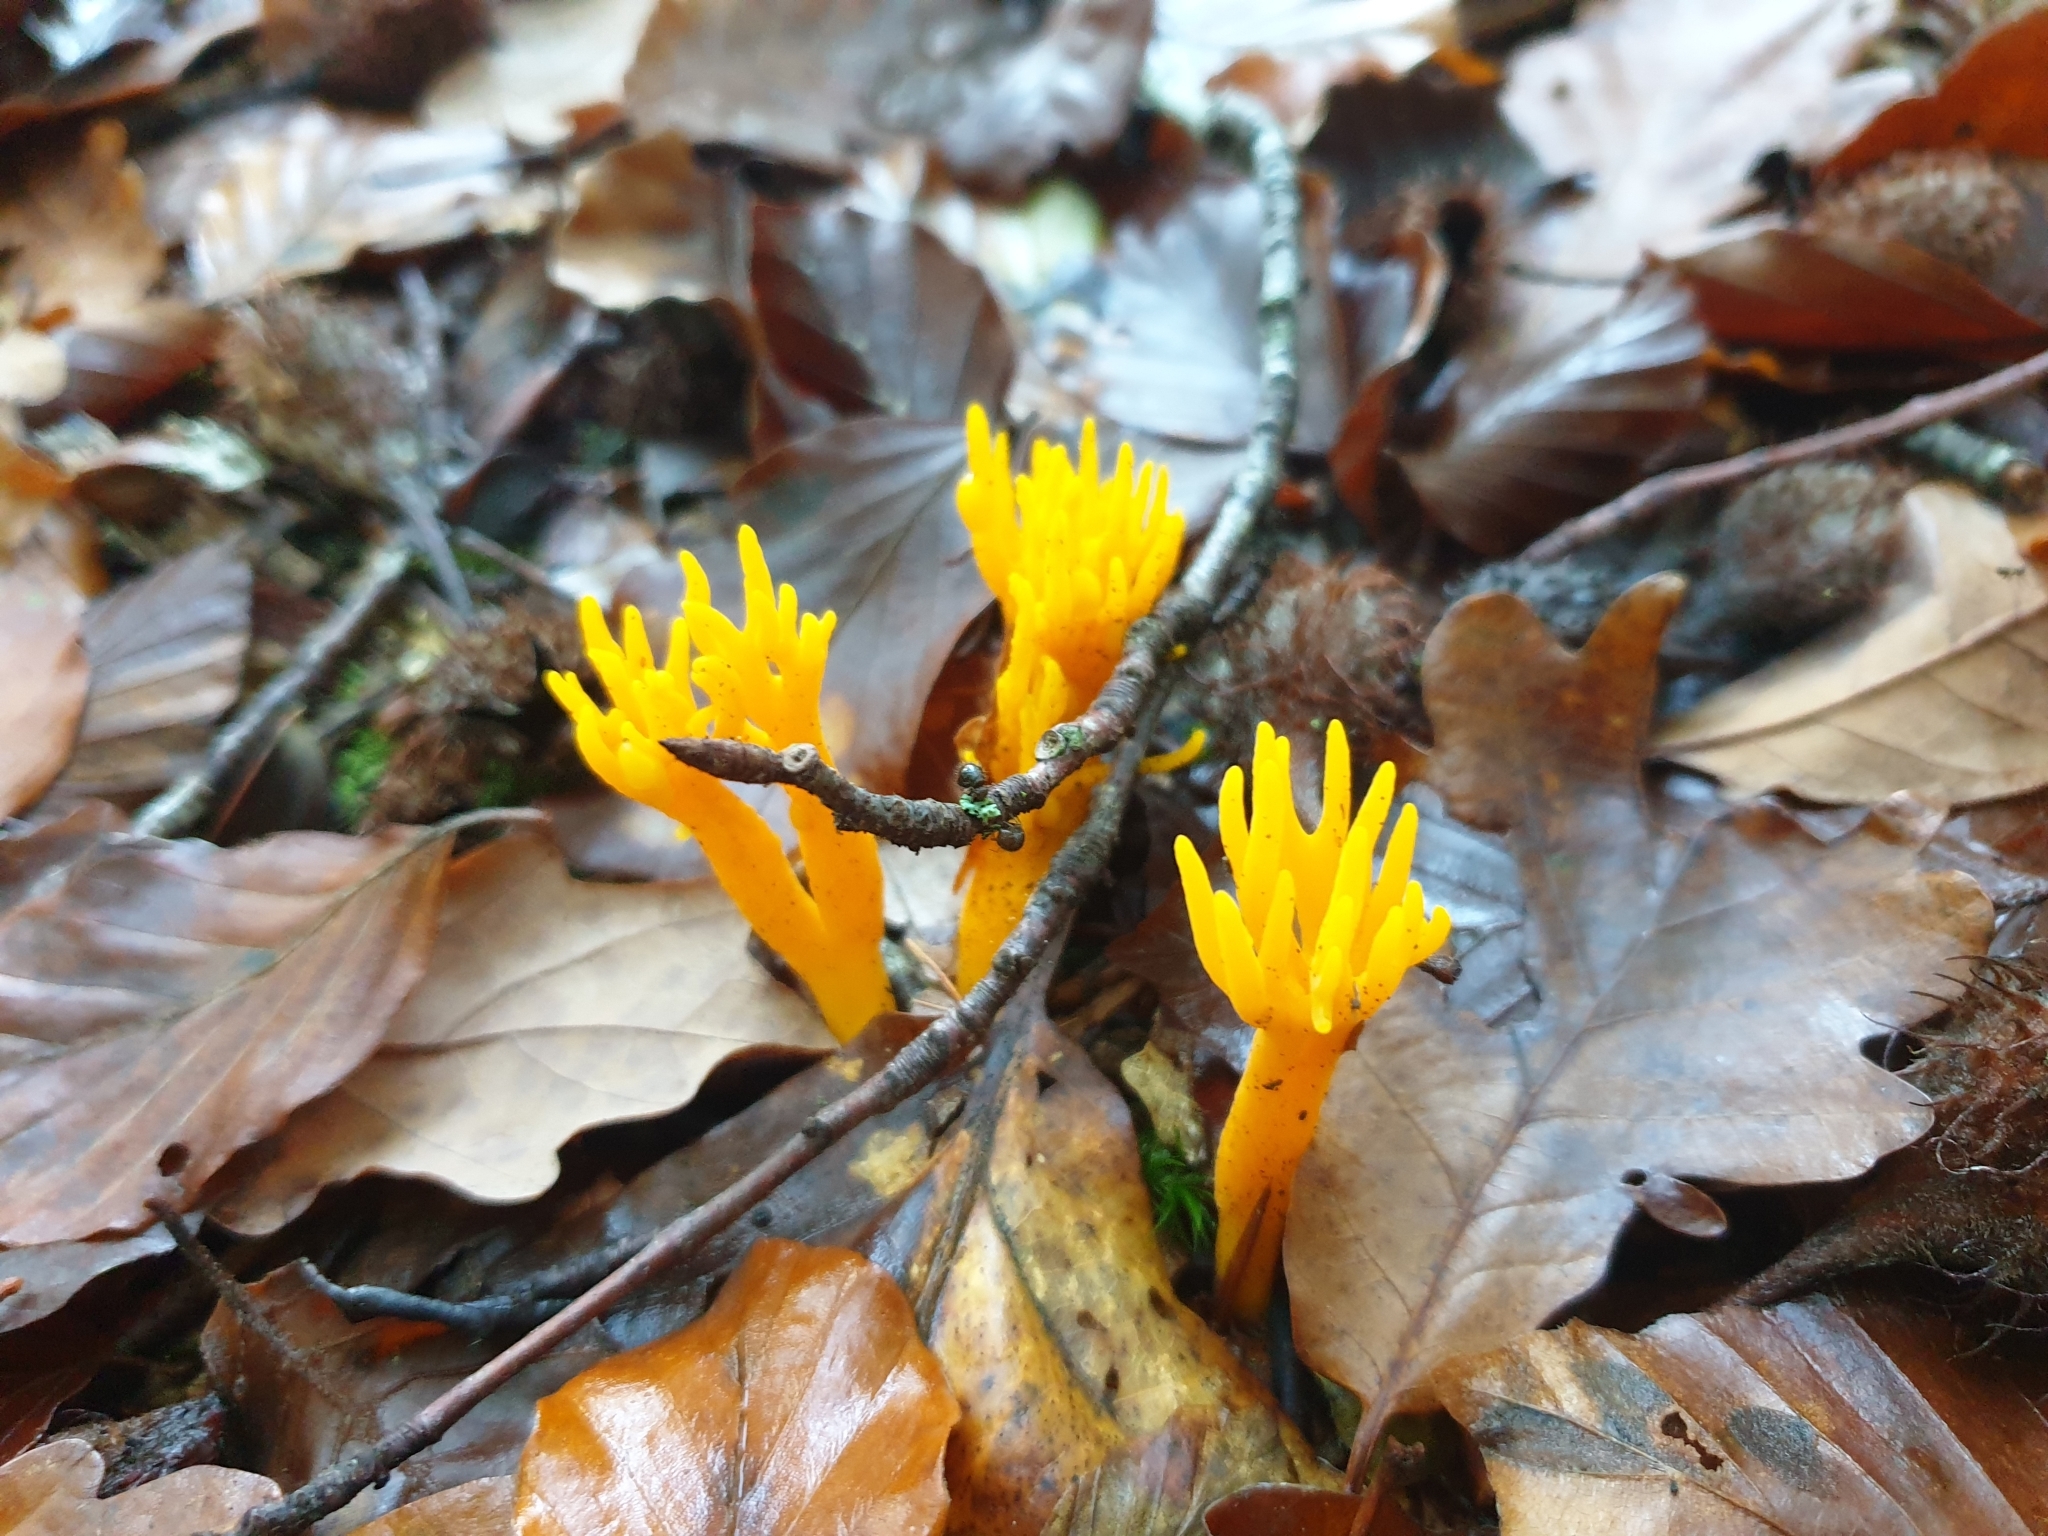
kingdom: Fungi
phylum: Basidiomycota
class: Dacrymycetes
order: Dacrymycetales
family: Dacrymycetaceae
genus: Calocera
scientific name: Calocera viscosa
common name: Yellow stagshorn
